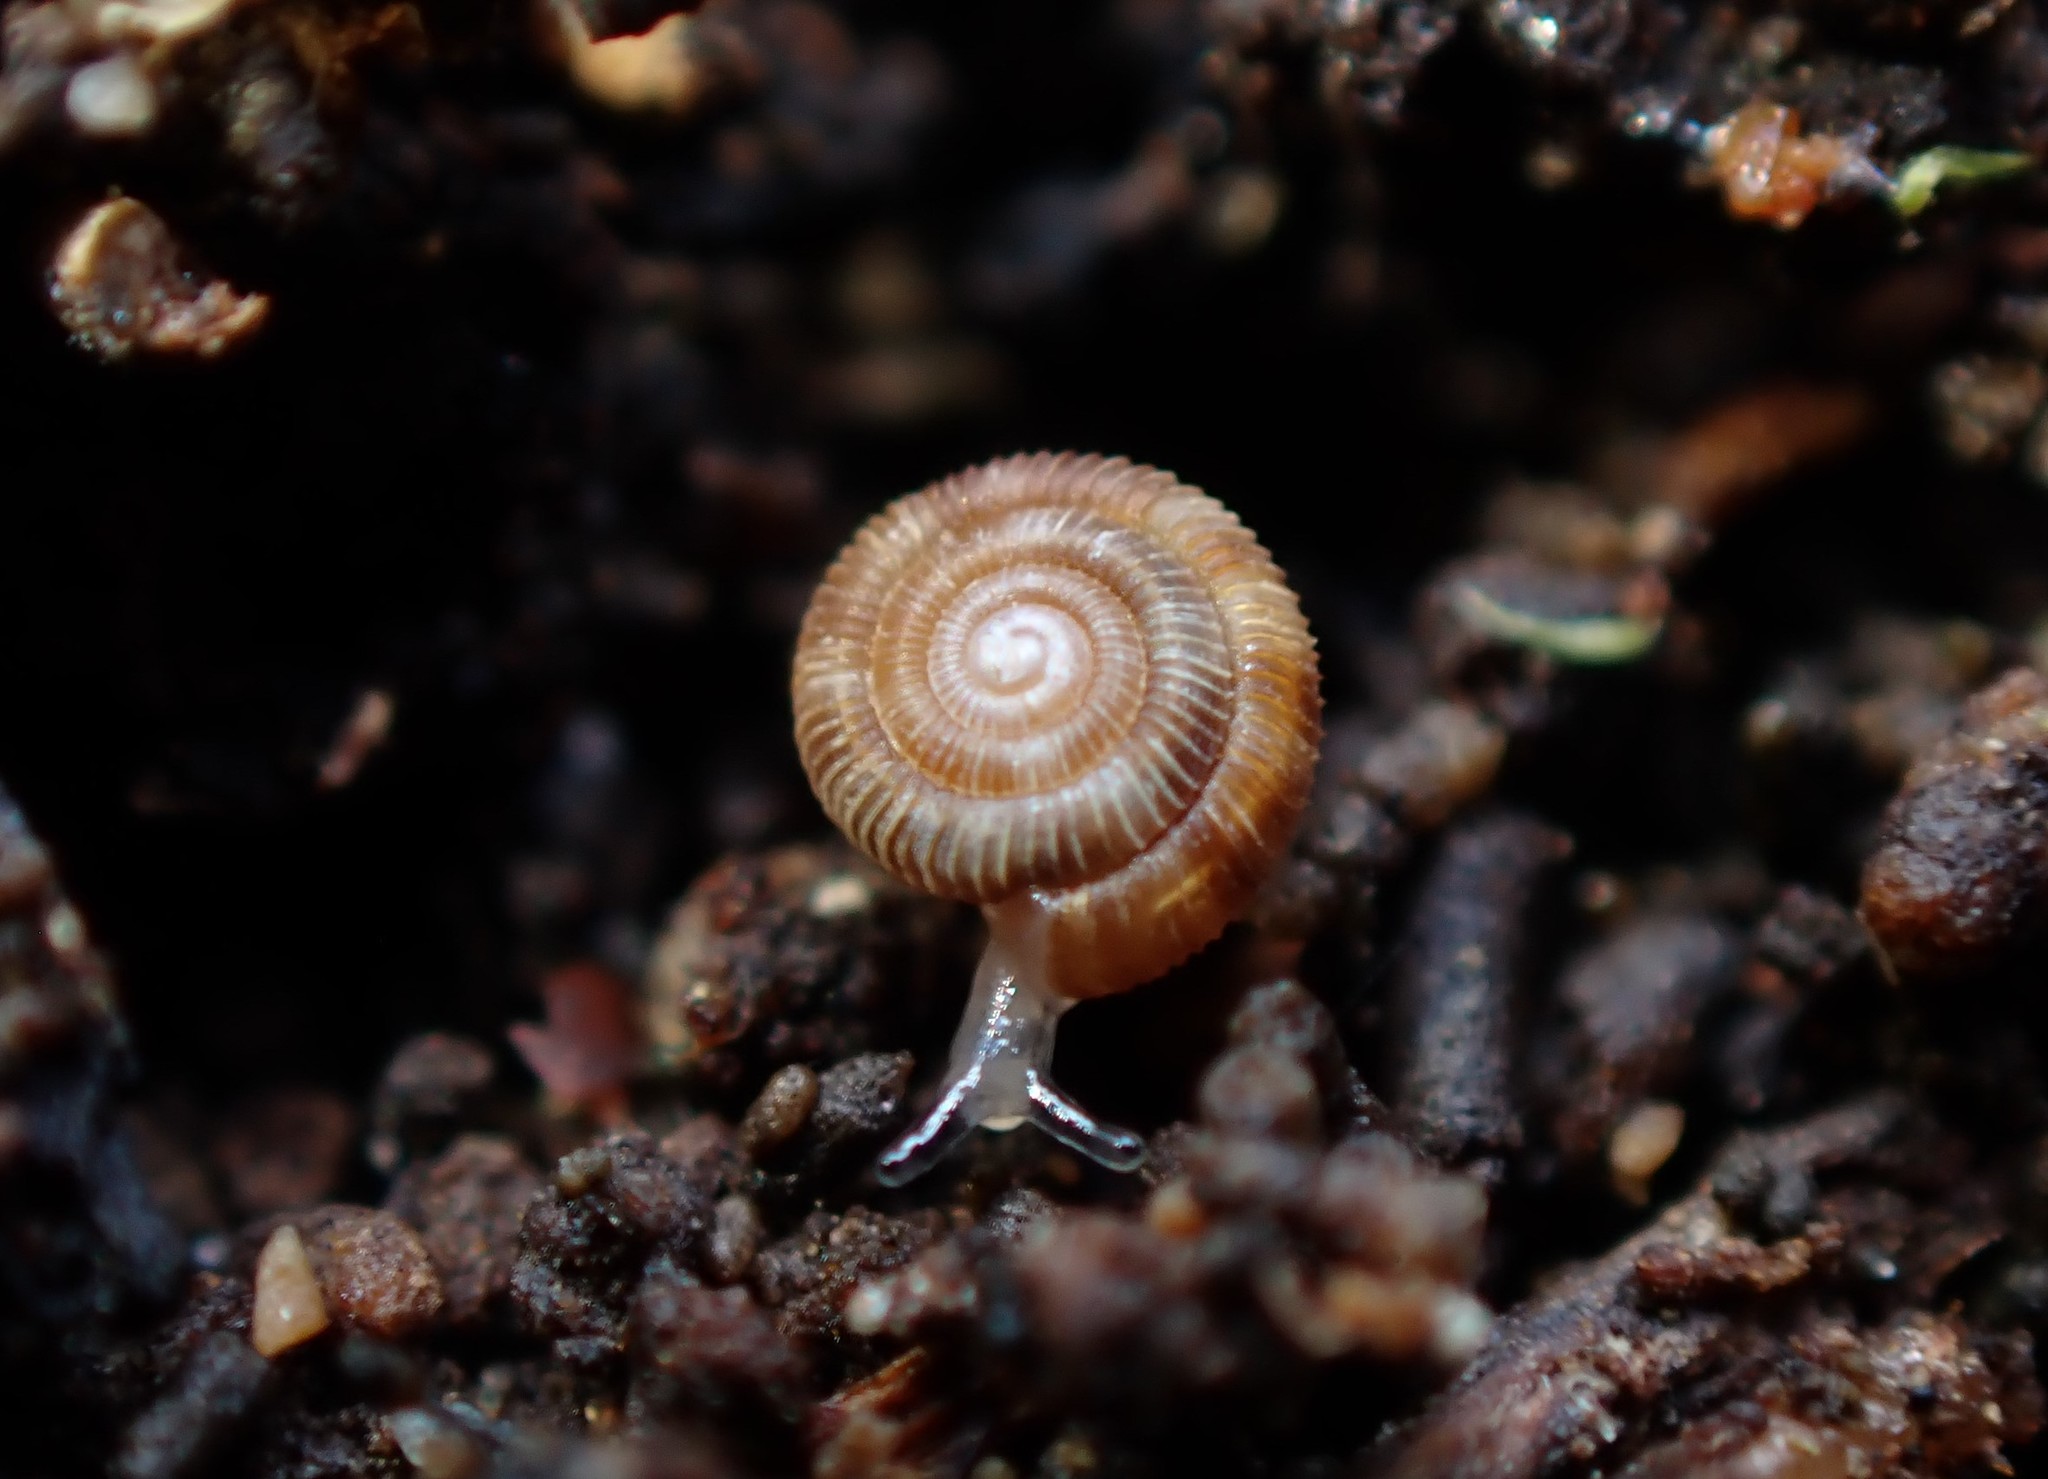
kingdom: Animalia
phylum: Mollusca
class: Gastropoda
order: Stylommatophora
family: Charopidae
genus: Huonodon
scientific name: Huonodon hectori
